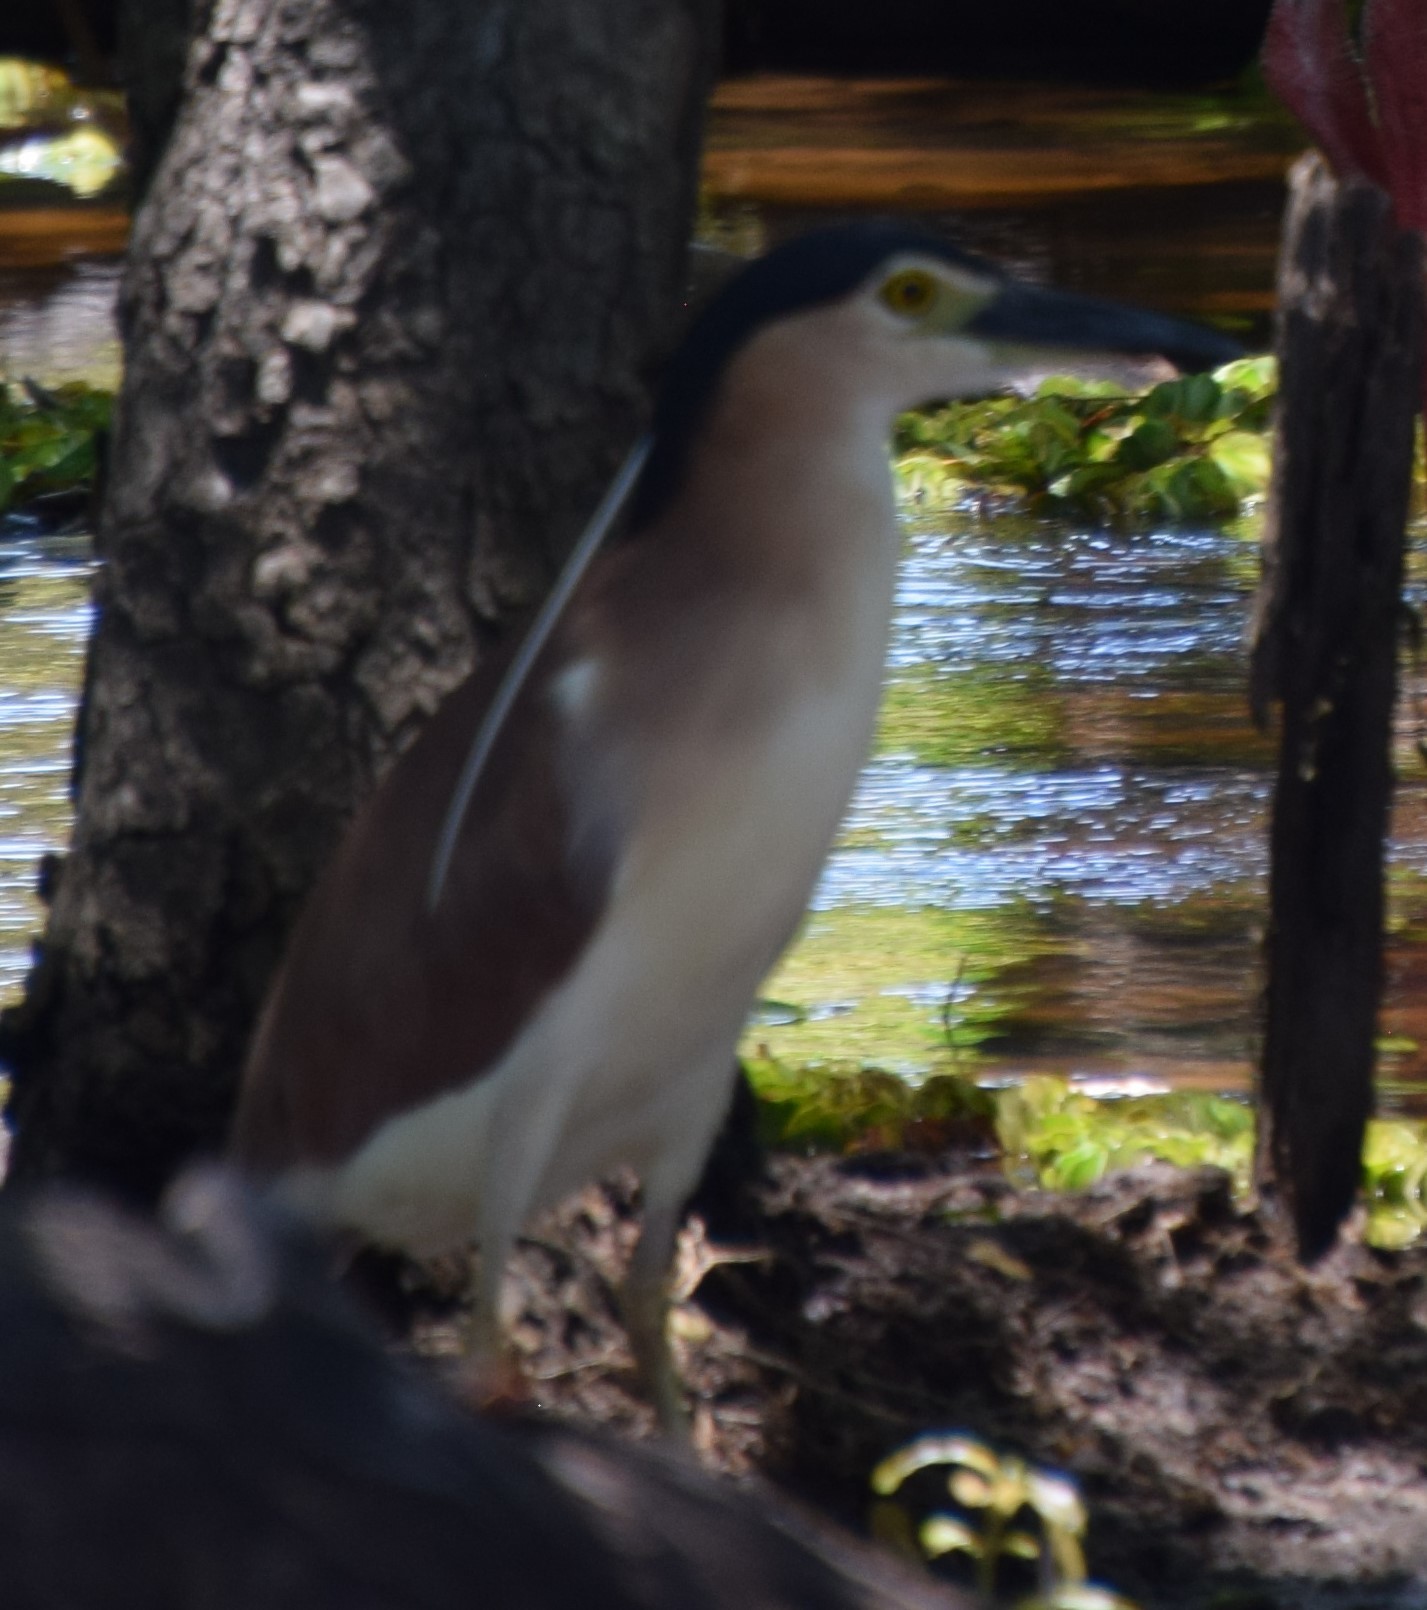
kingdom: Animalia
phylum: Chordata
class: Aves
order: Pelecaniformes
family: Ardeidae
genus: Nycticorax
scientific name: Nycticorax caledonicus
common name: Rufous night-heron
